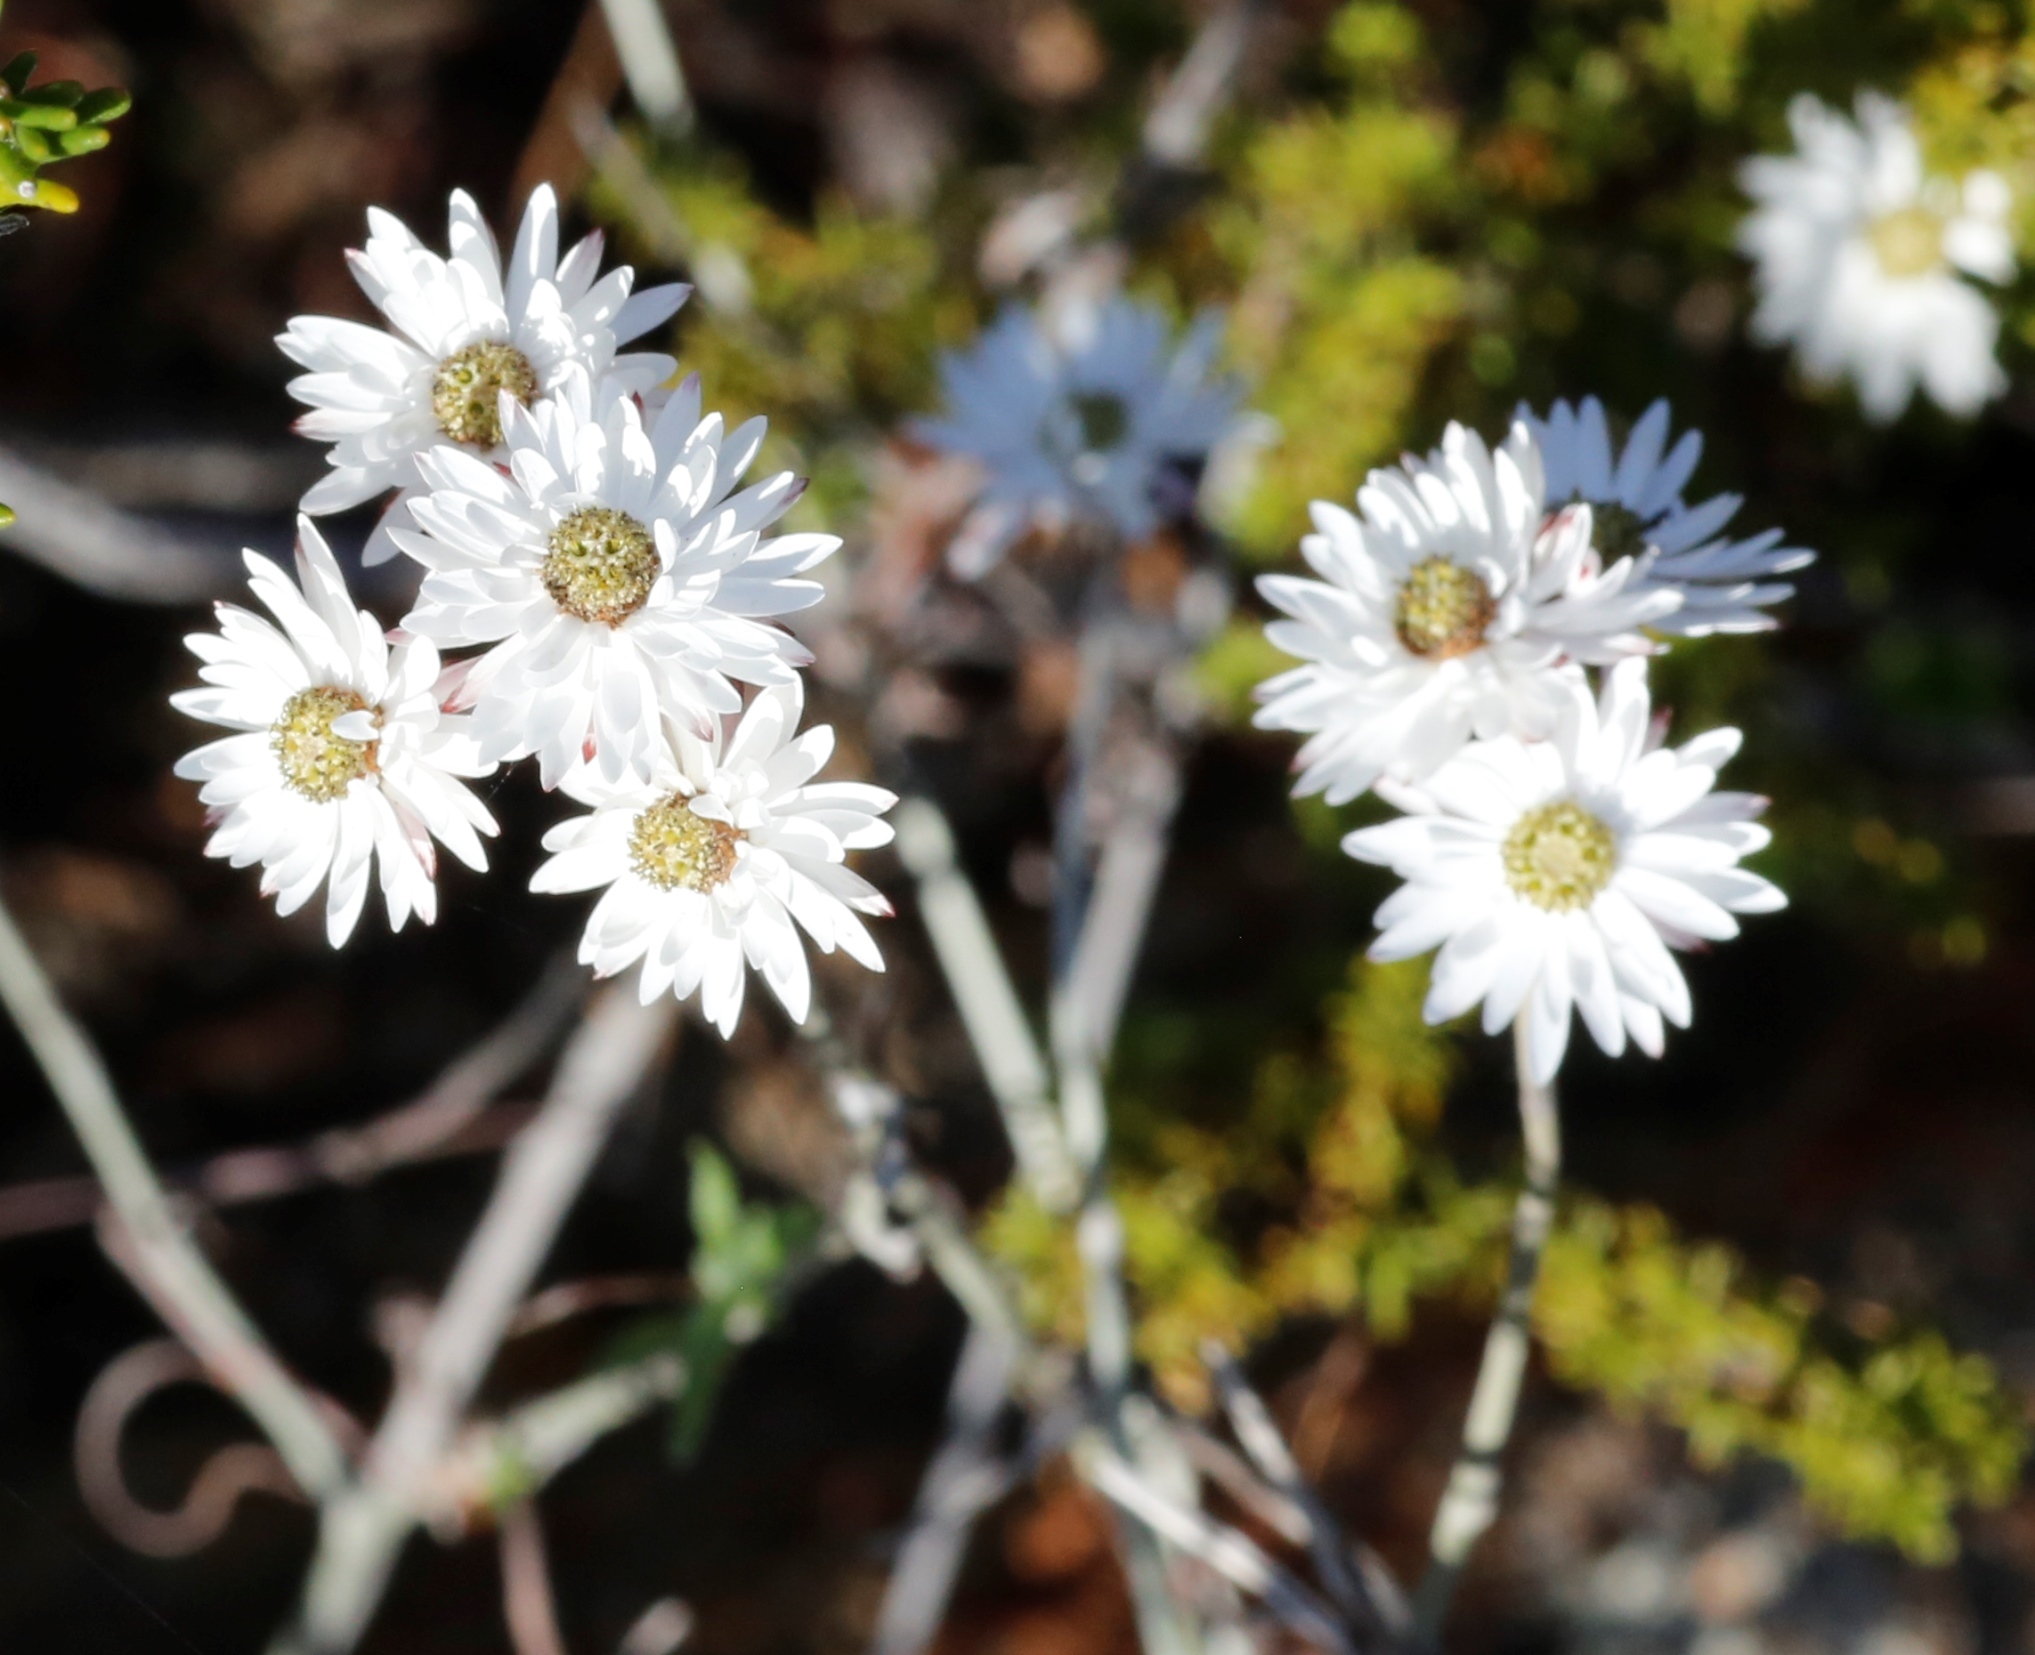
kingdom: Plantae
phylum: Tracheophyta
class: Magnoliopsida
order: Asterales
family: Asteraceae
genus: Pithocarpa
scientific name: Pithocarpa pulchella
